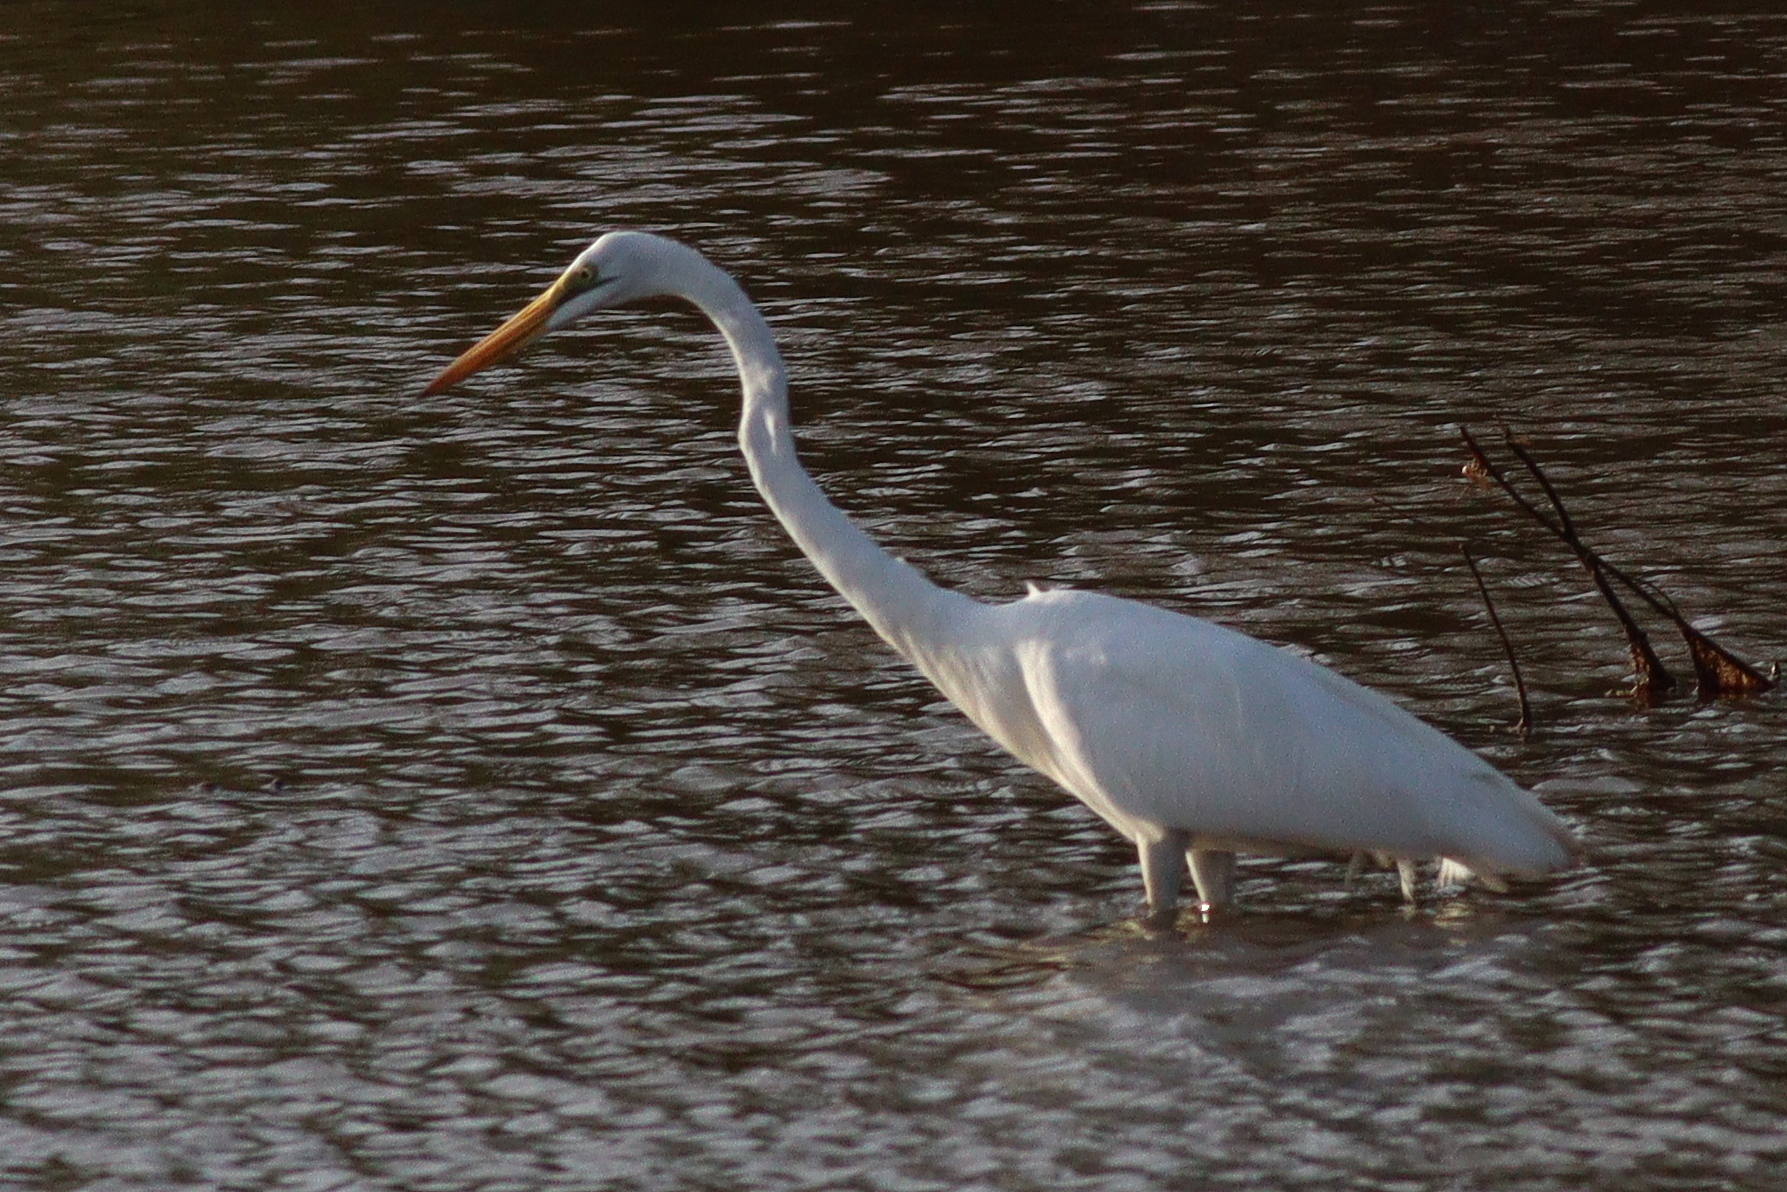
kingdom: Animalia
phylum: Chordata
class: Aves
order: Pelecaniformes
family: Ardeidae
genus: Ardea
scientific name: Ardea alba
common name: Great egret
